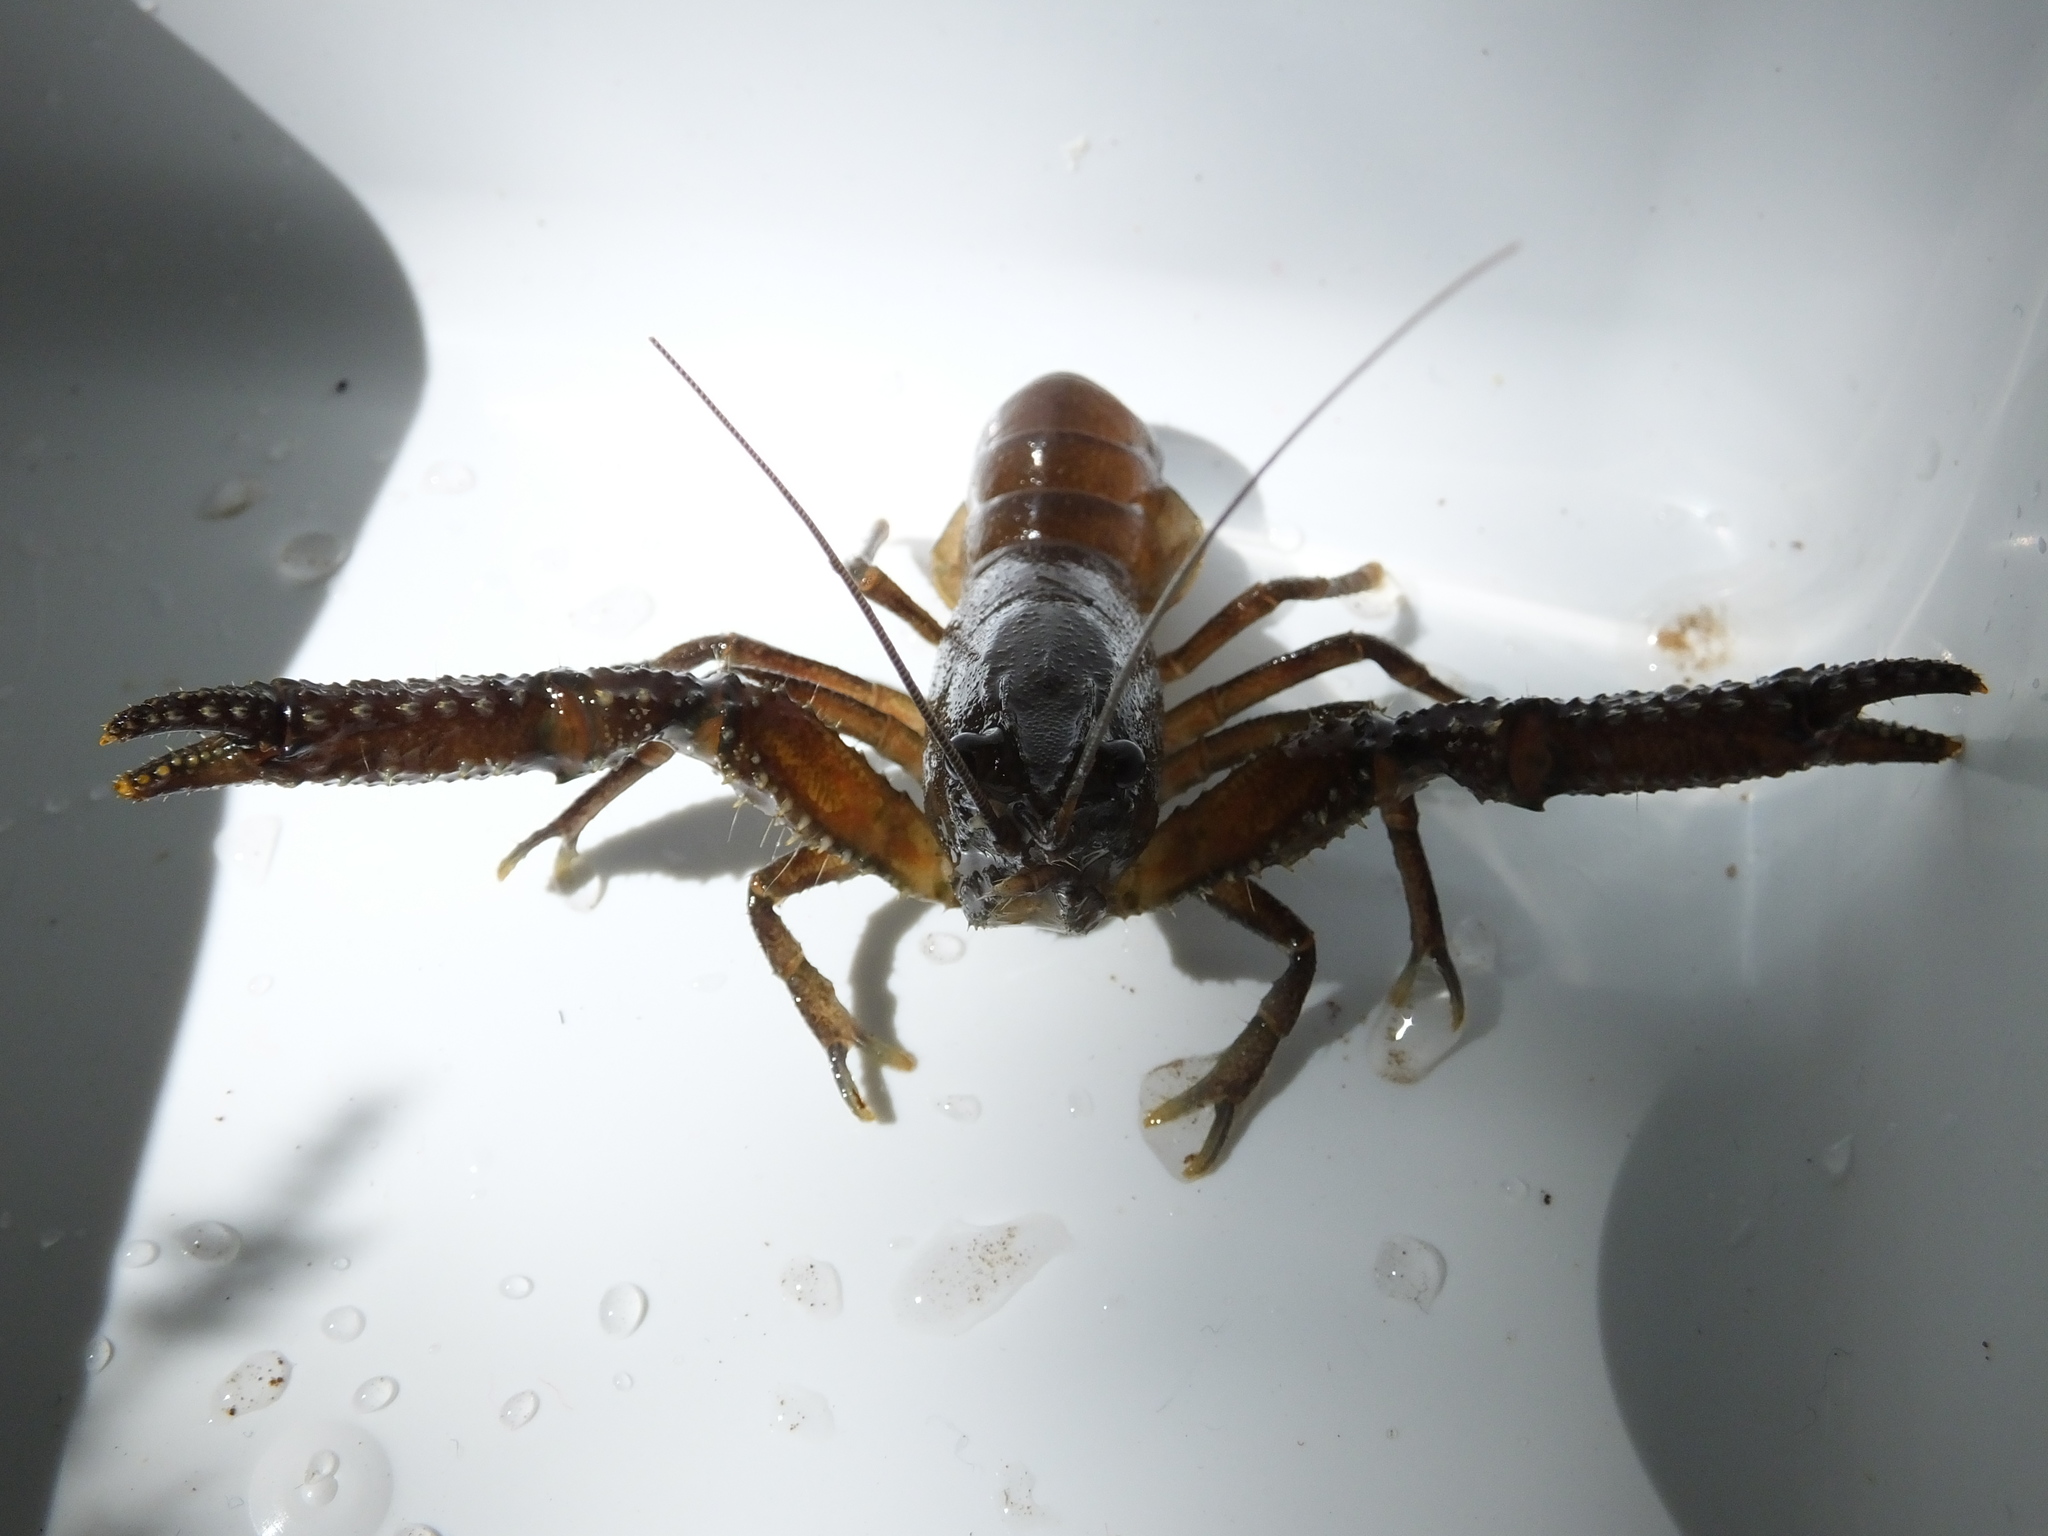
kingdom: Animalia
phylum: Arthropoda
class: Malacostraca
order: Decapoda
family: Parastacidae
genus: Paranephrops
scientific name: Paranephrops planifrons
